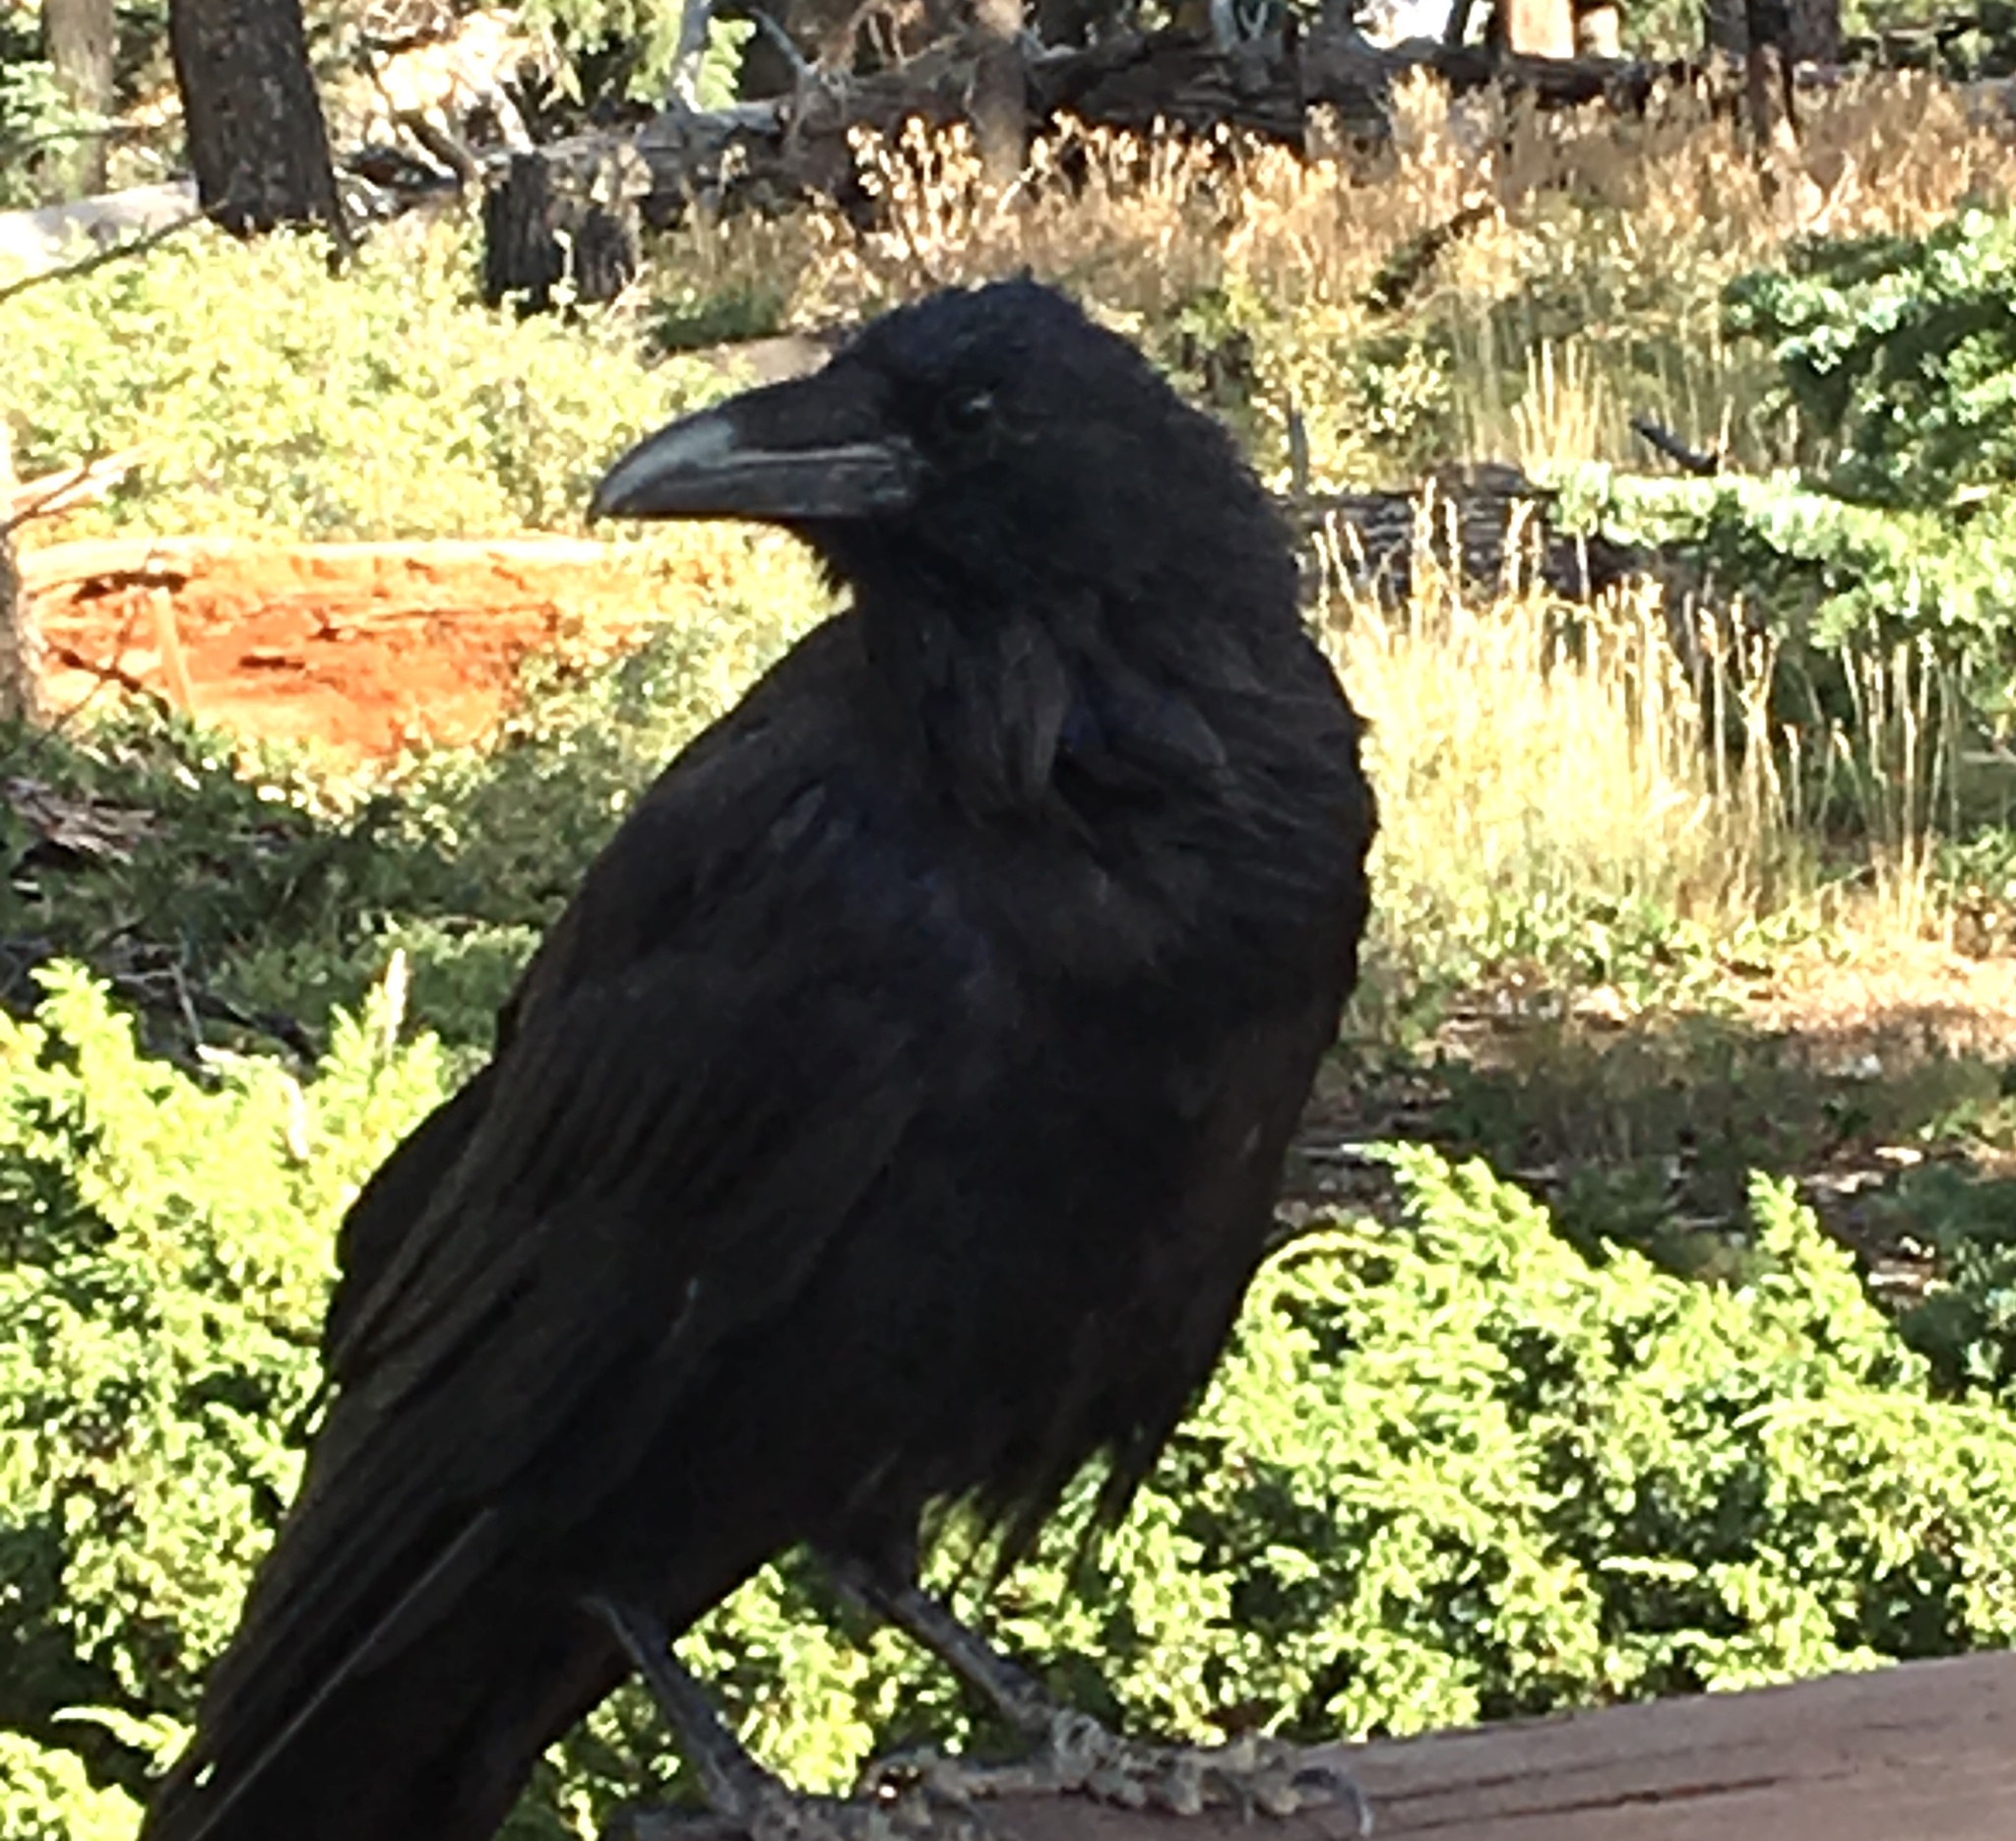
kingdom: Animalia
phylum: Chordata
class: Aves
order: Passeriformes
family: Corvidae
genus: Corvus
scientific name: Corvus corax
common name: Common raven
